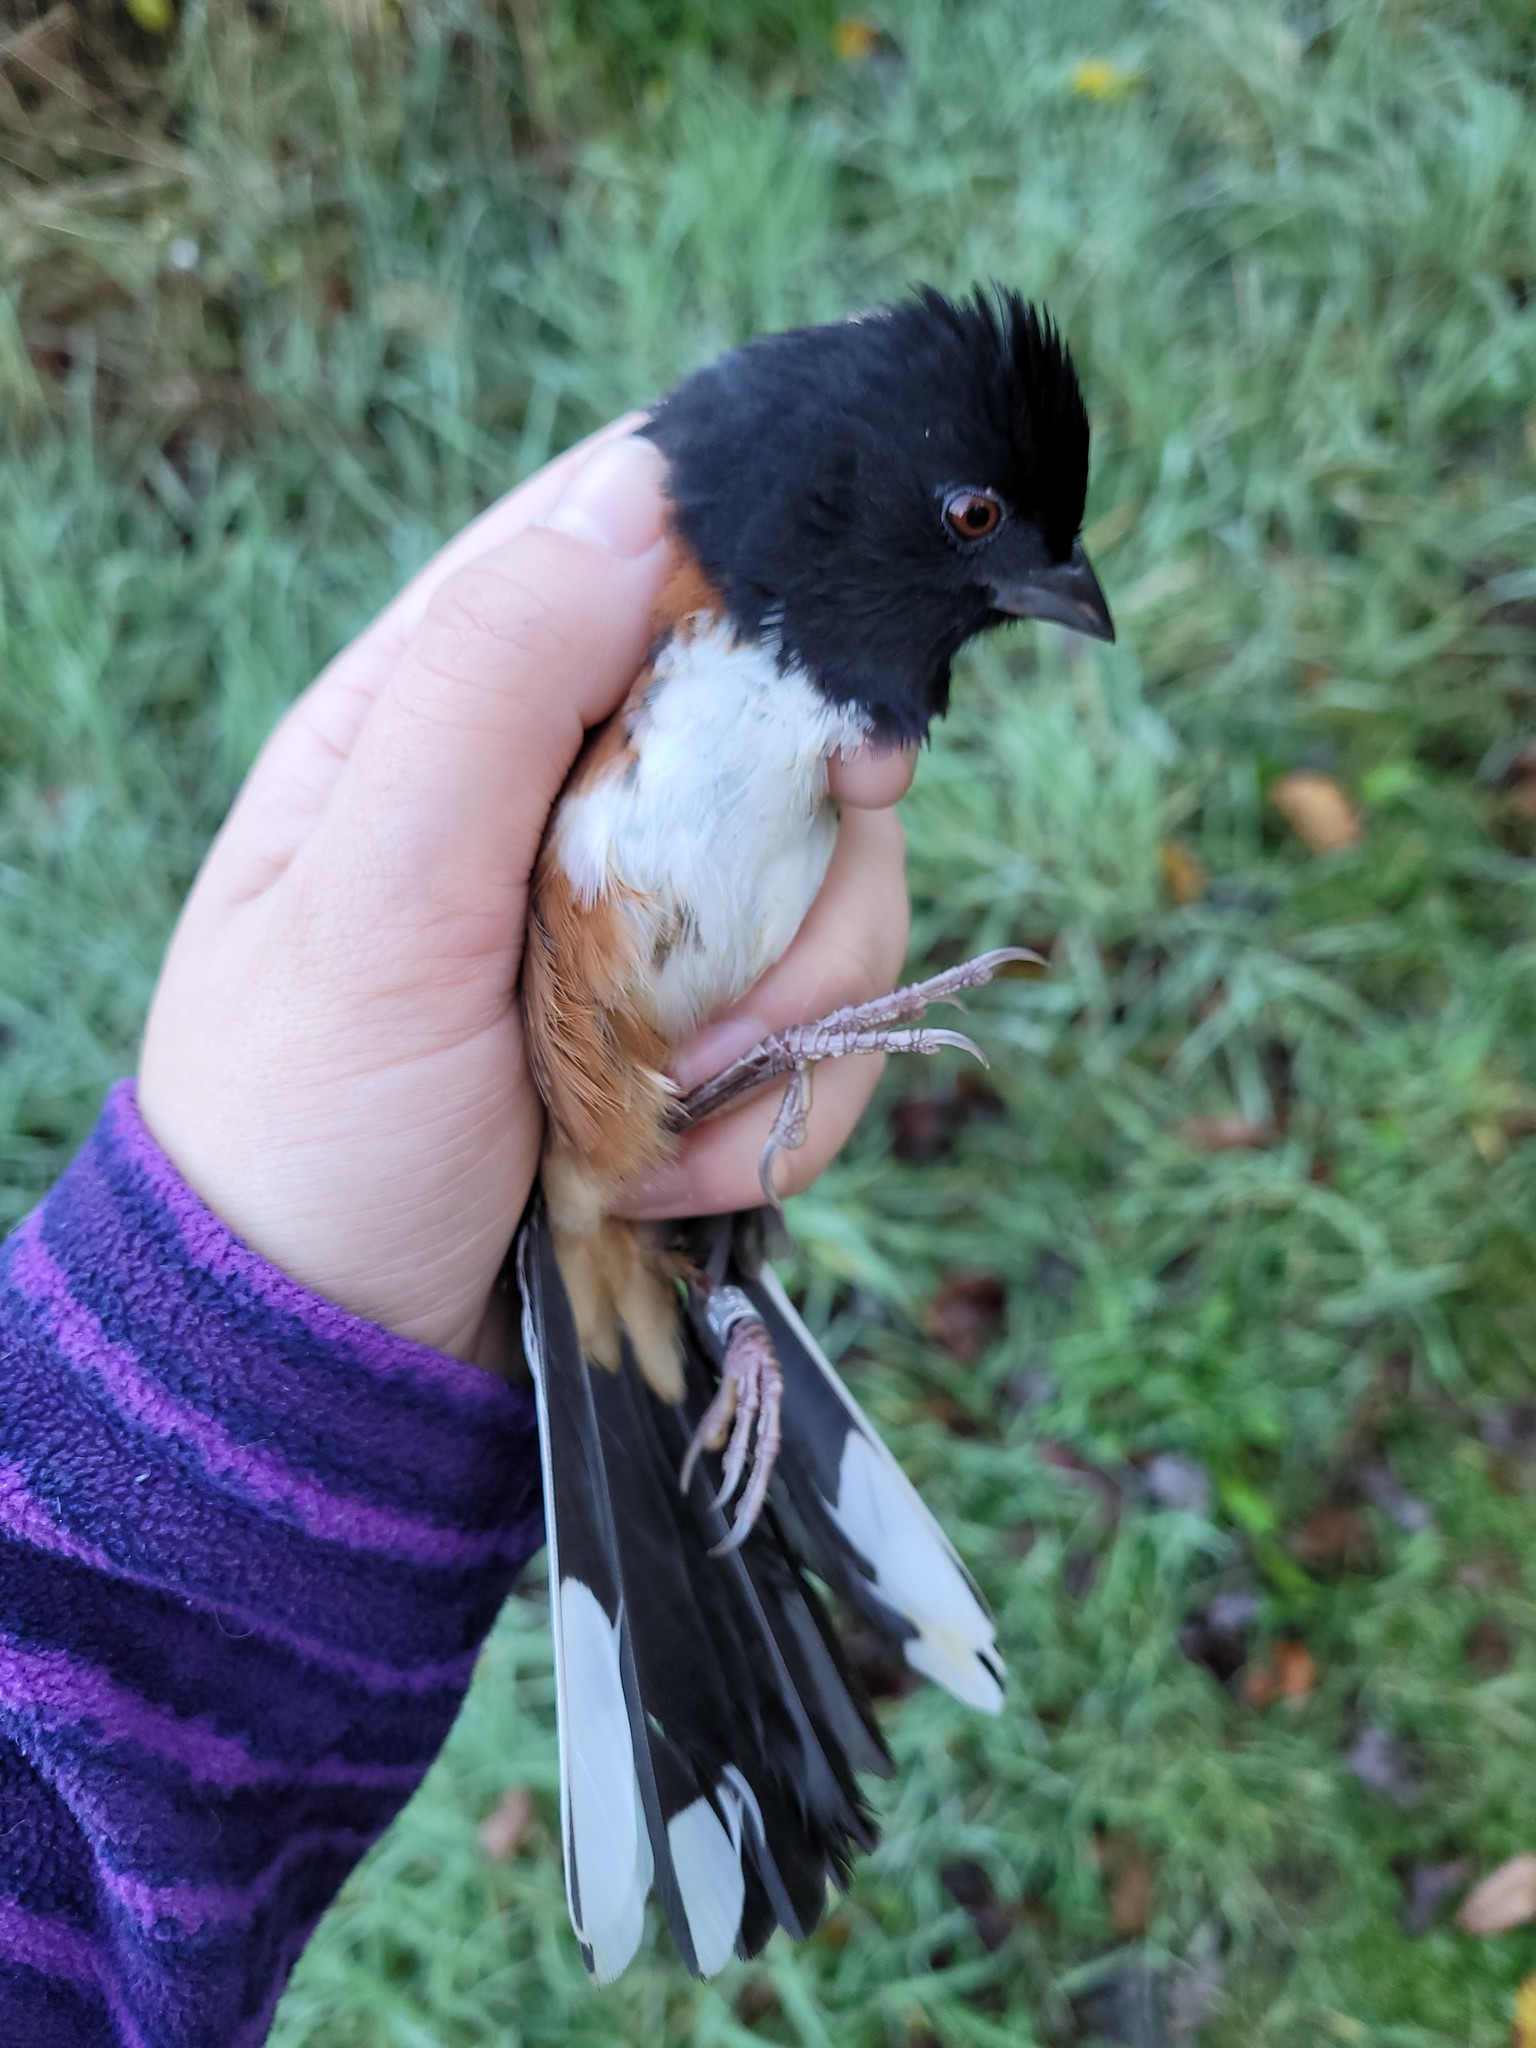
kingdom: Animalia
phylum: Chordata
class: Aves
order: Passeriformes
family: Passerellidae
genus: Pipilo
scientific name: Pipilo erythrophthalmus
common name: Eastern towhee
